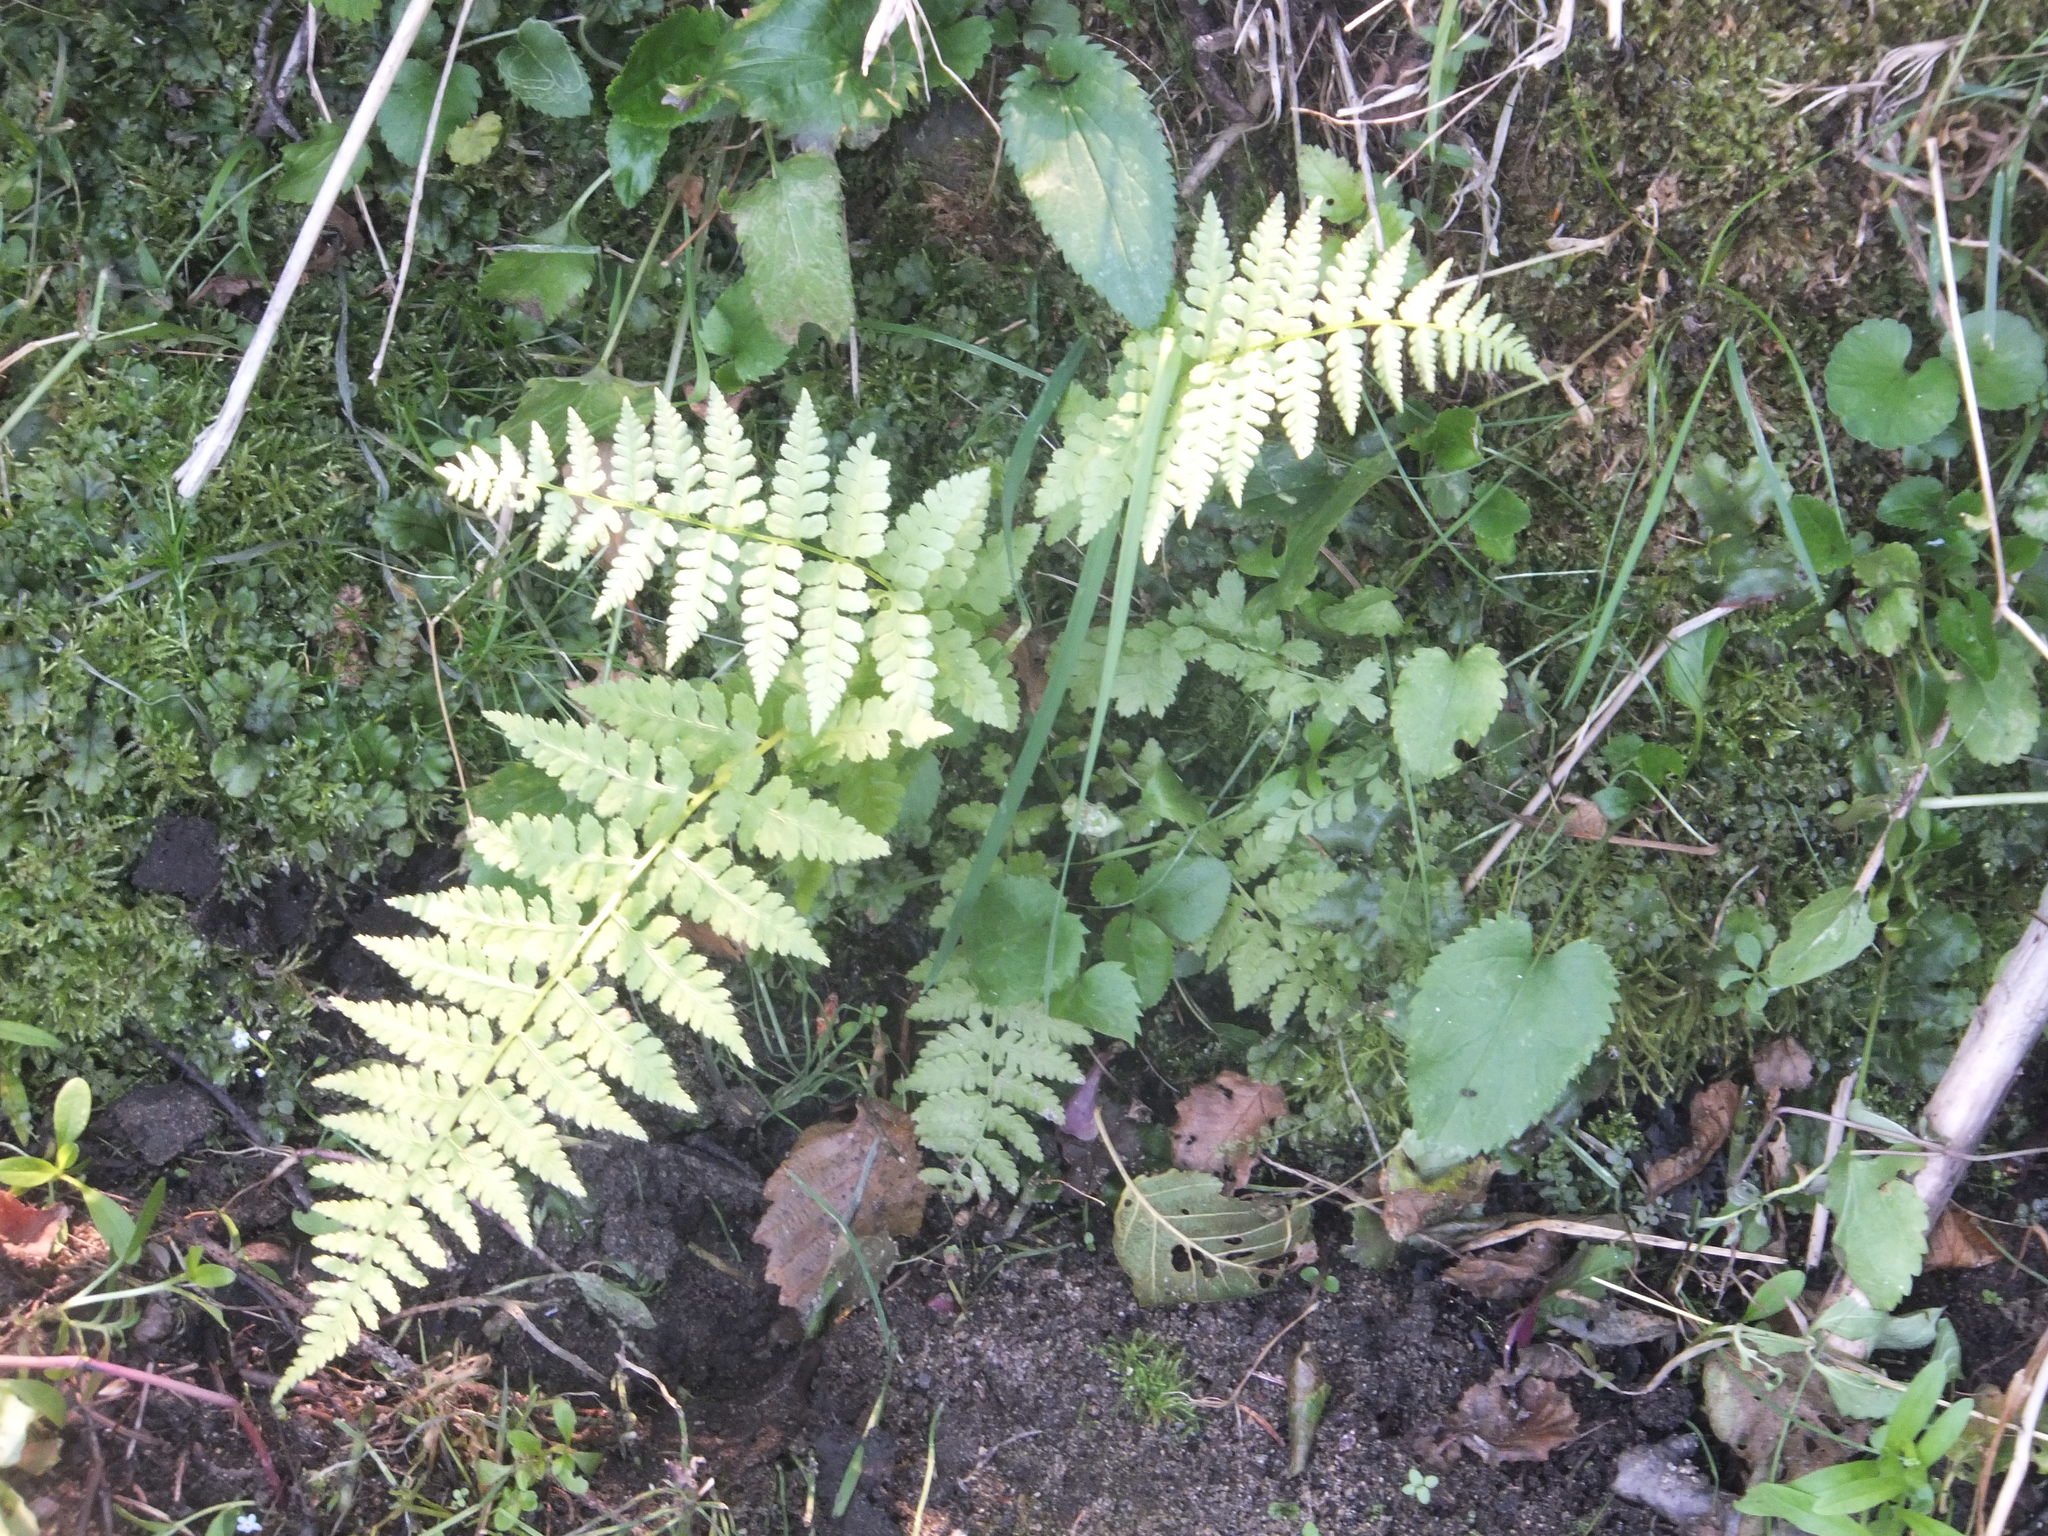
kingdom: Plantae
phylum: Tracheophyta
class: Polypodiopsida
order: Polypodiales
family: Athyriaceae
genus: Athyrium
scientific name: Athyrium filix-femina
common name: Lady fern
